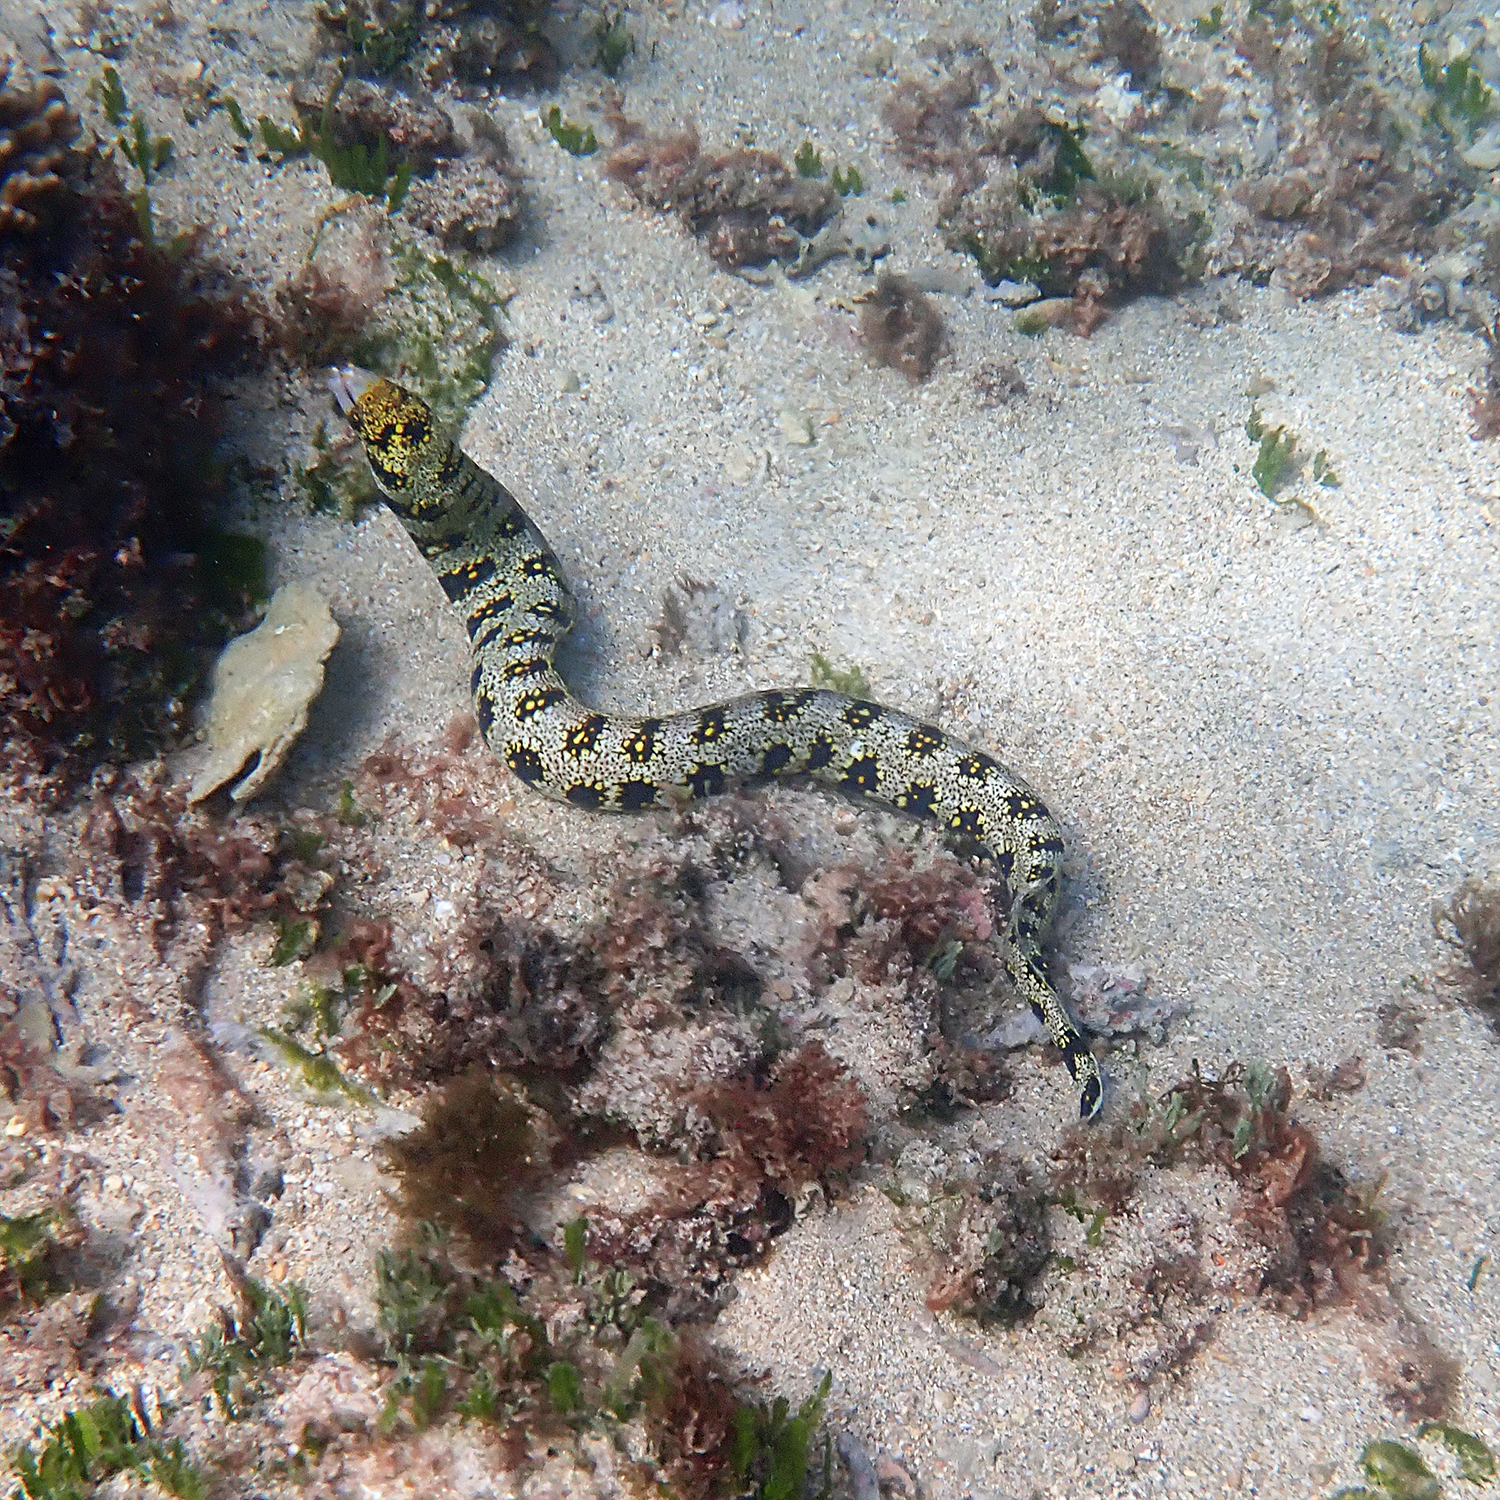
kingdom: Animalia
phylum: Chordata
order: Anguilliformes
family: Muraenidae
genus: Echidna
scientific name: Echidna nebulosa
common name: Snowflake moray
